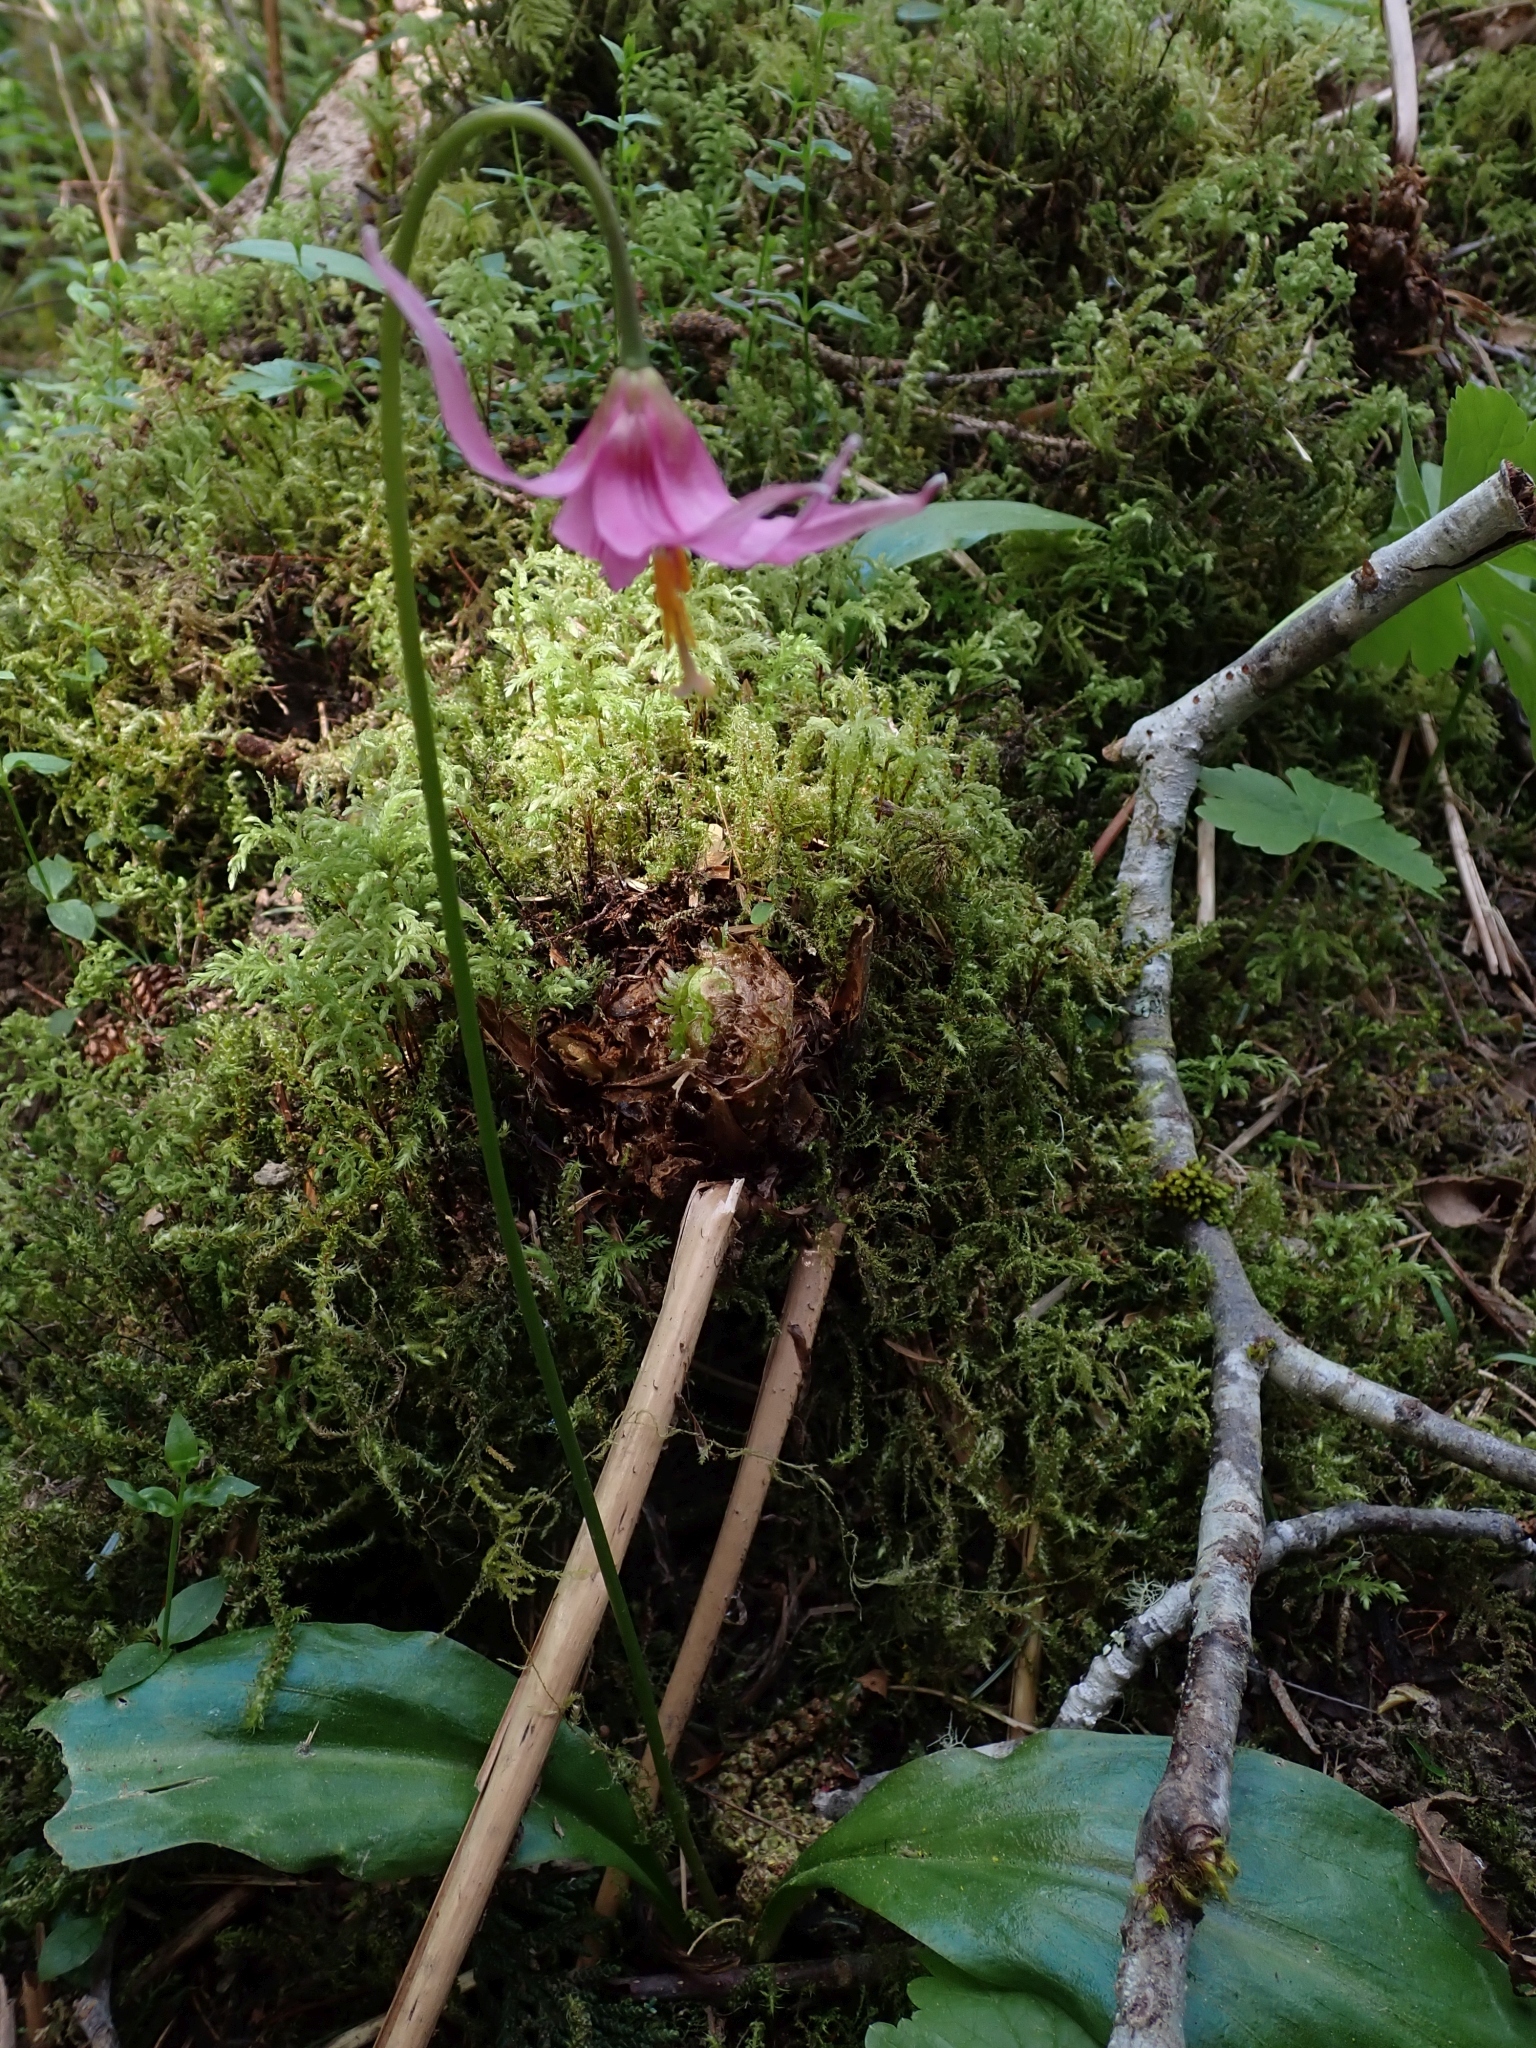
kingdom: Plantae
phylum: Tracheophyta
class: Liliopsida
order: Liliales
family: Liliaceae
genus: Erythronium
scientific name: Erythronium revolutum
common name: Pink fawn-lily
